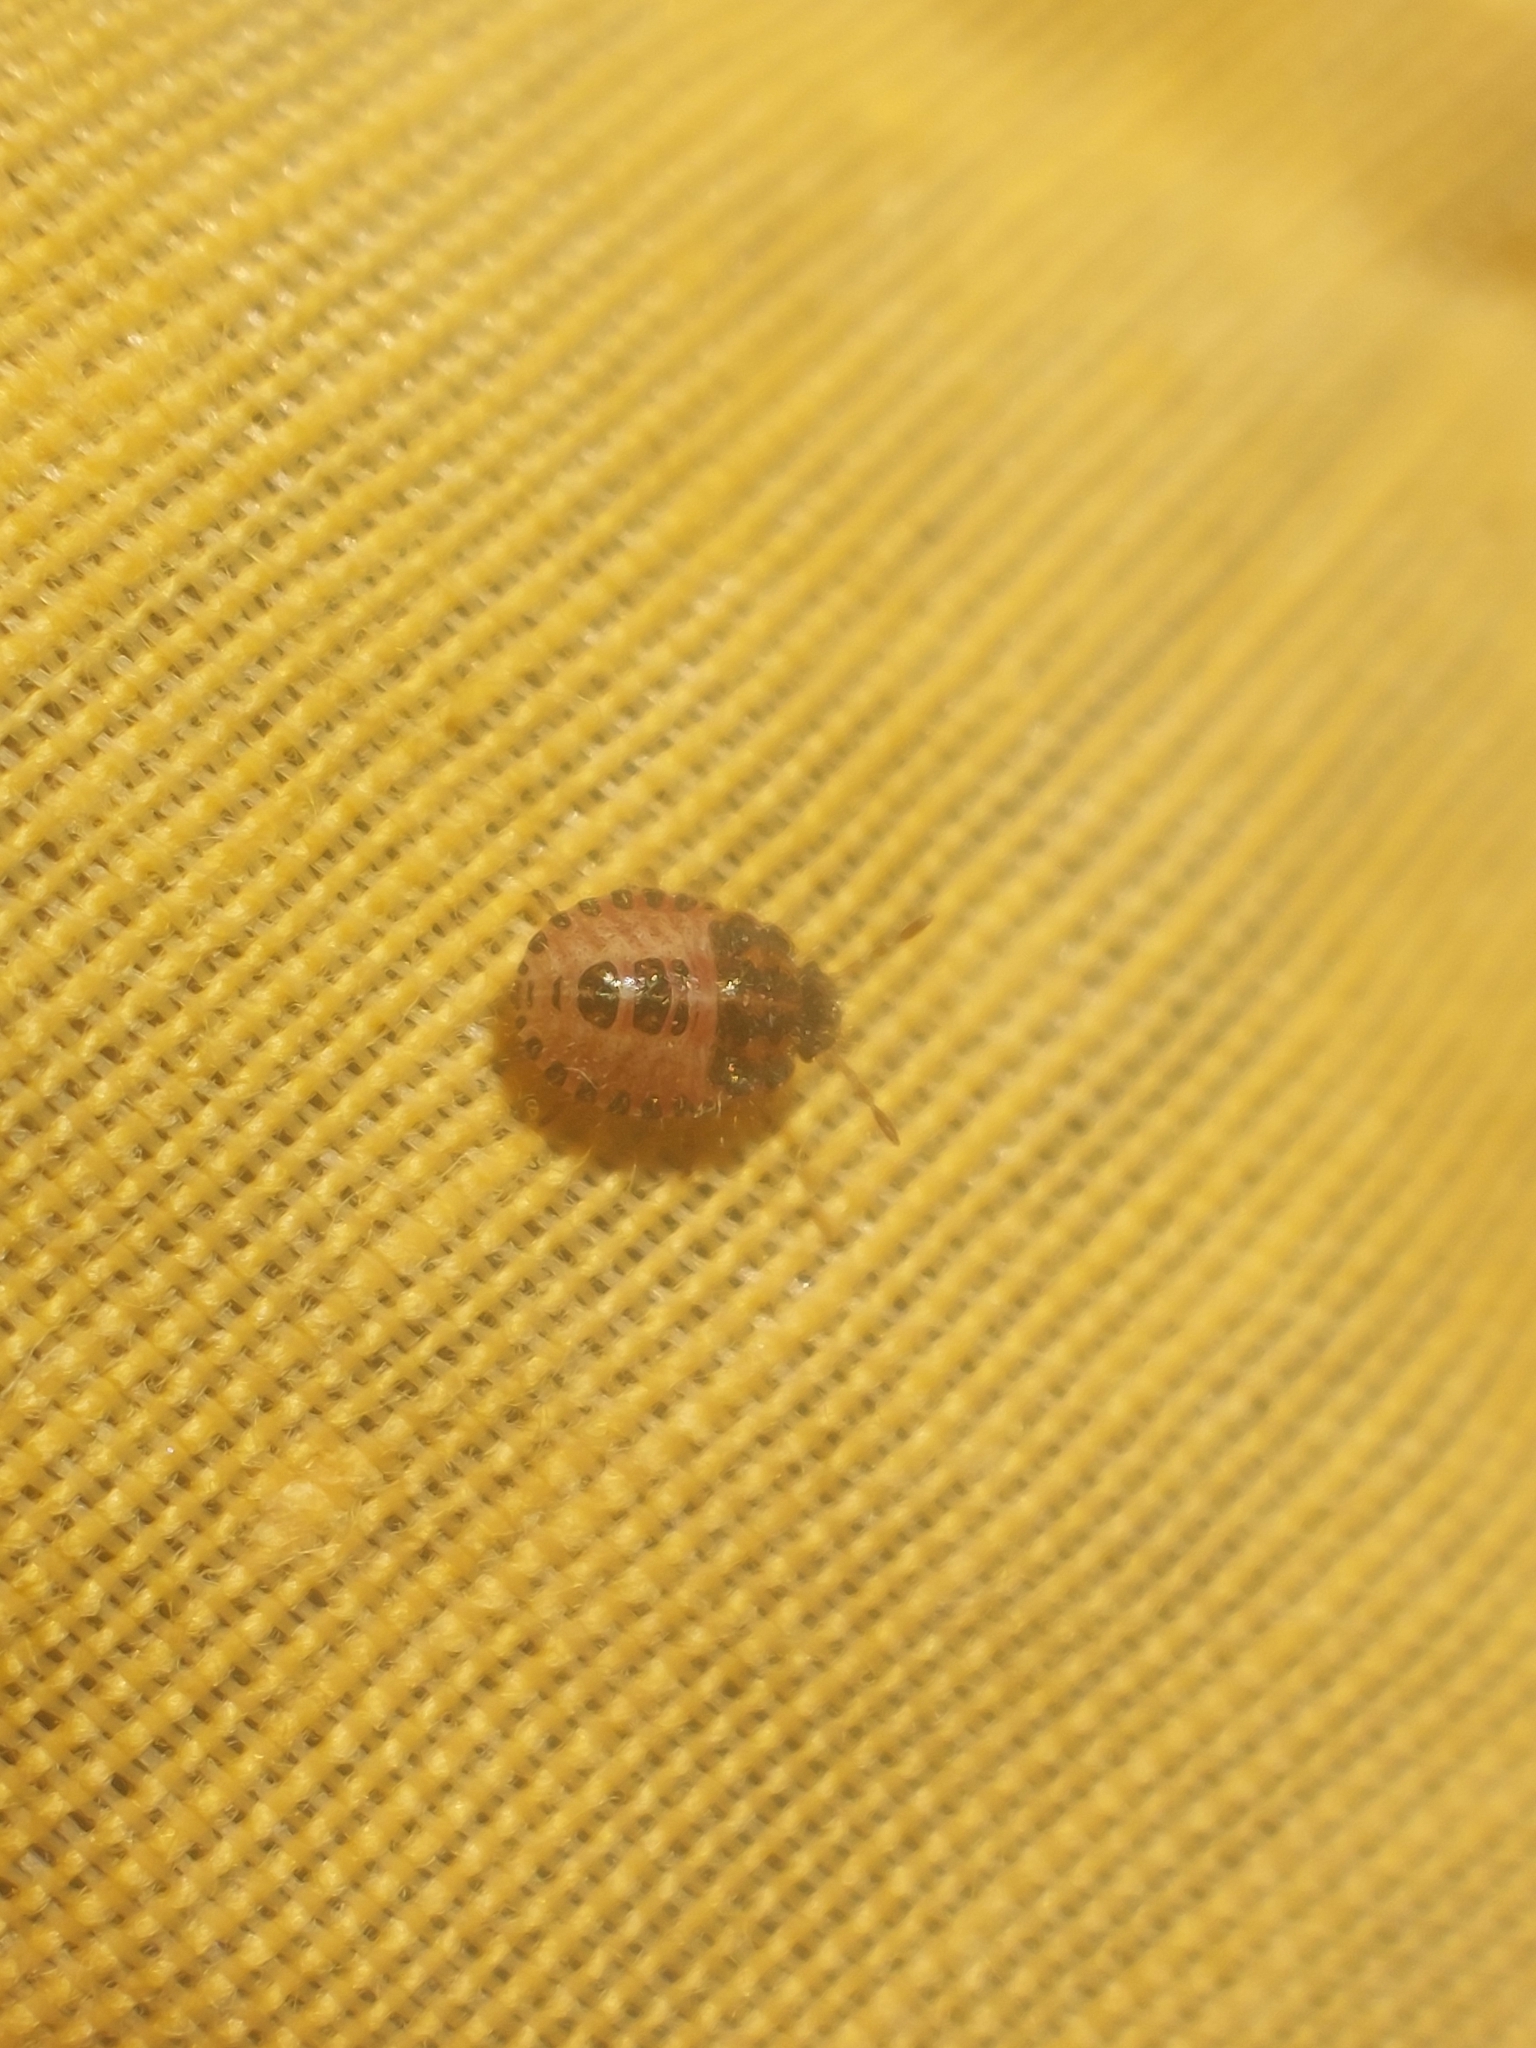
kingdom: Animalia
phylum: Arthropoda
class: Insecta
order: Hemiptera
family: Pentatomidae
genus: Dolycoris
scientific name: Dolycoris baccarum
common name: Sloe bug
